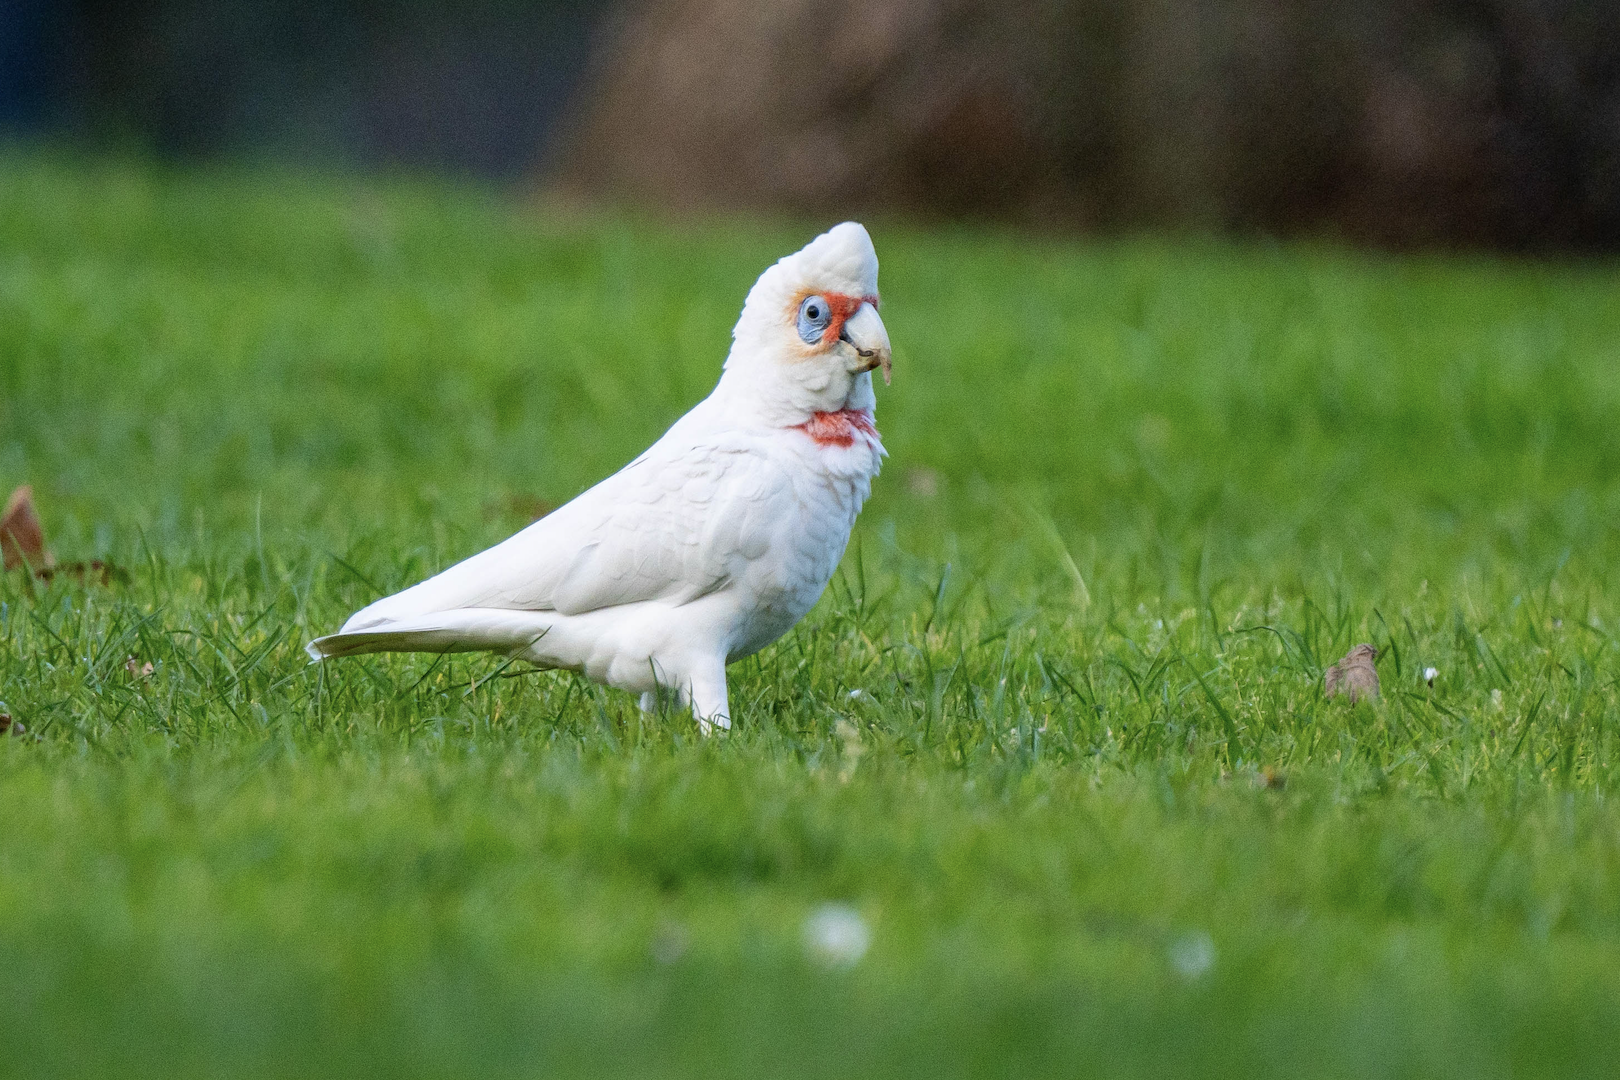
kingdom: Animalia
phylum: Chordata
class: Aves
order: Psittaciformes
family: Psittacidae
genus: Cacatua
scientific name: Cacatua tenuirostris
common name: Long-billed corella
